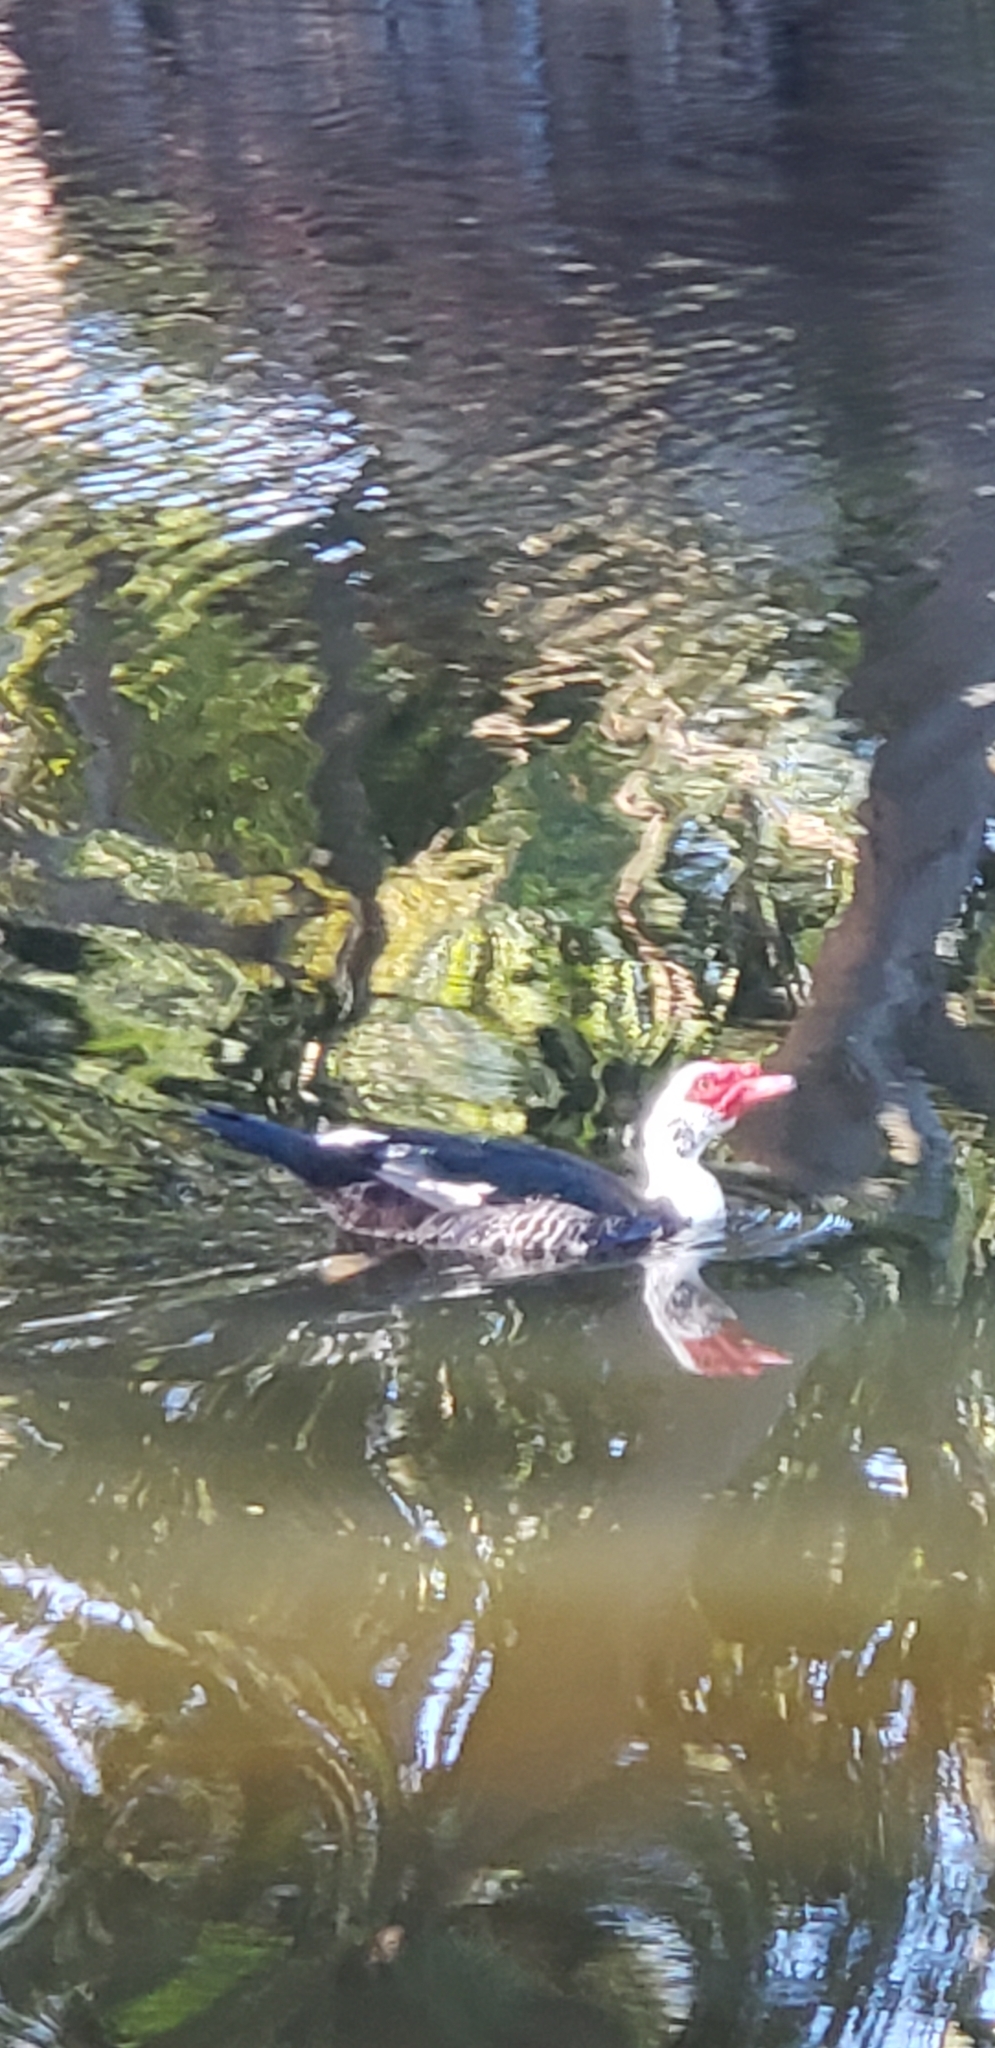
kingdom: Animalia
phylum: Chordata
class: Aves
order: Anseriformes
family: Anatidae
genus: Cairina
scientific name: Cairina moschata
